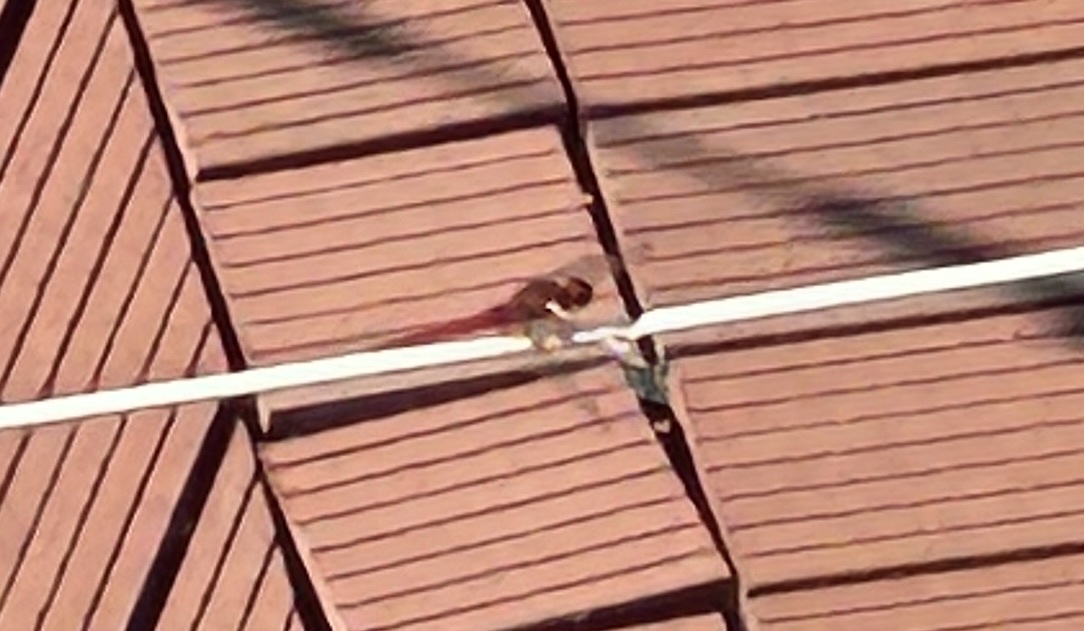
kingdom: Animalia
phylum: Arthropoda
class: Insecta
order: Odonata
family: Libellulidae
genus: Crocothemis
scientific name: Crocothemis servilia
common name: Scarlet skimmer
